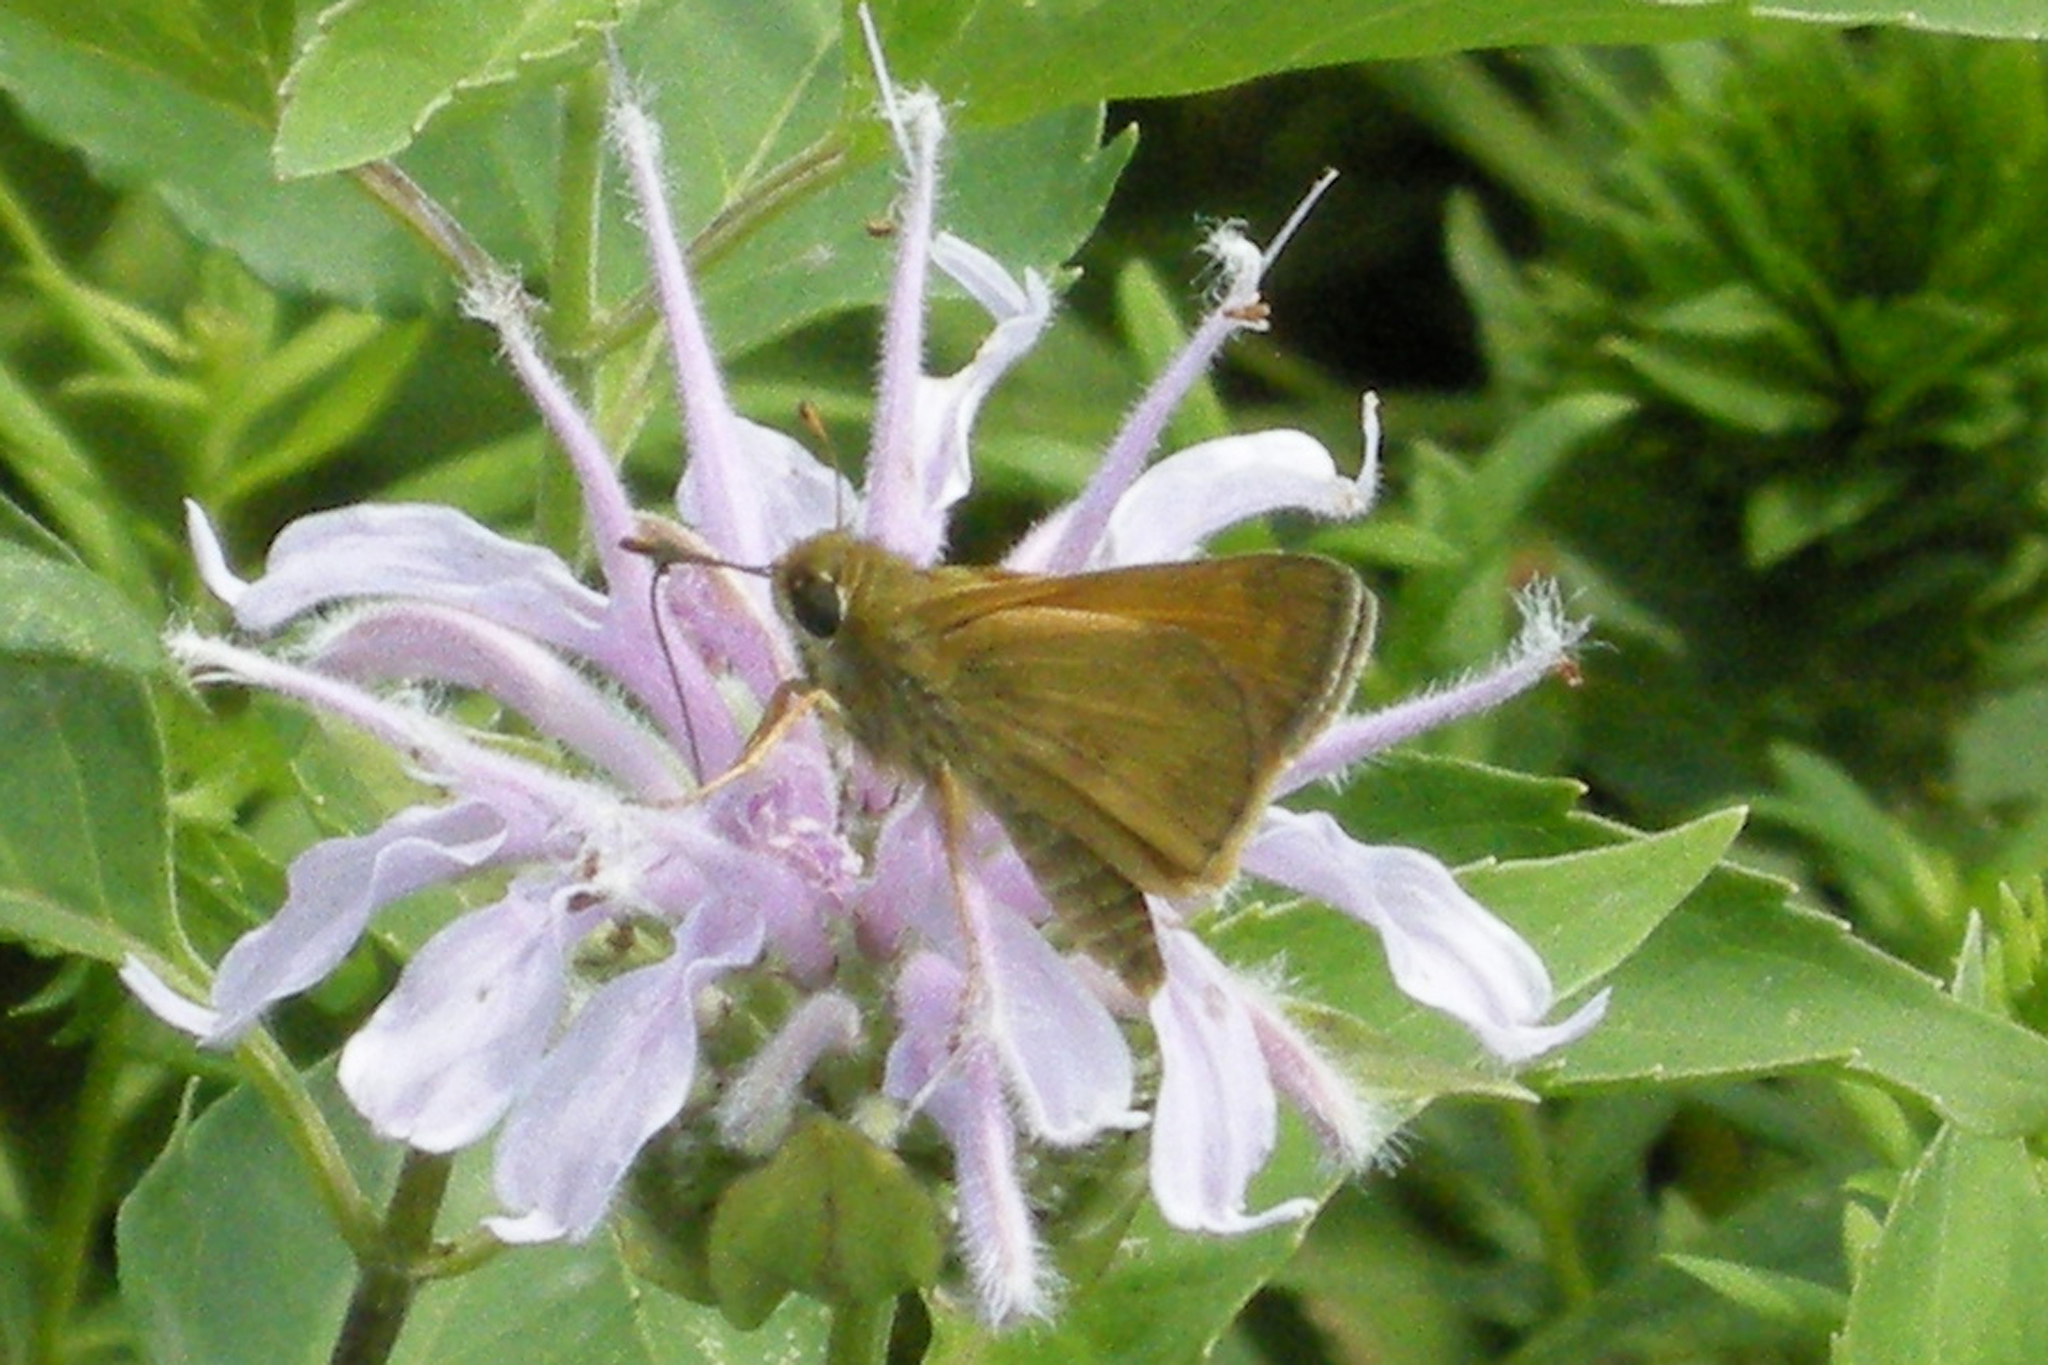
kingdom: Animalia
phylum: Arthropoda
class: Insecta
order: Lepidoptera
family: Hesperiidae
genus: Atalopedes
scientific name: Atalopedes
